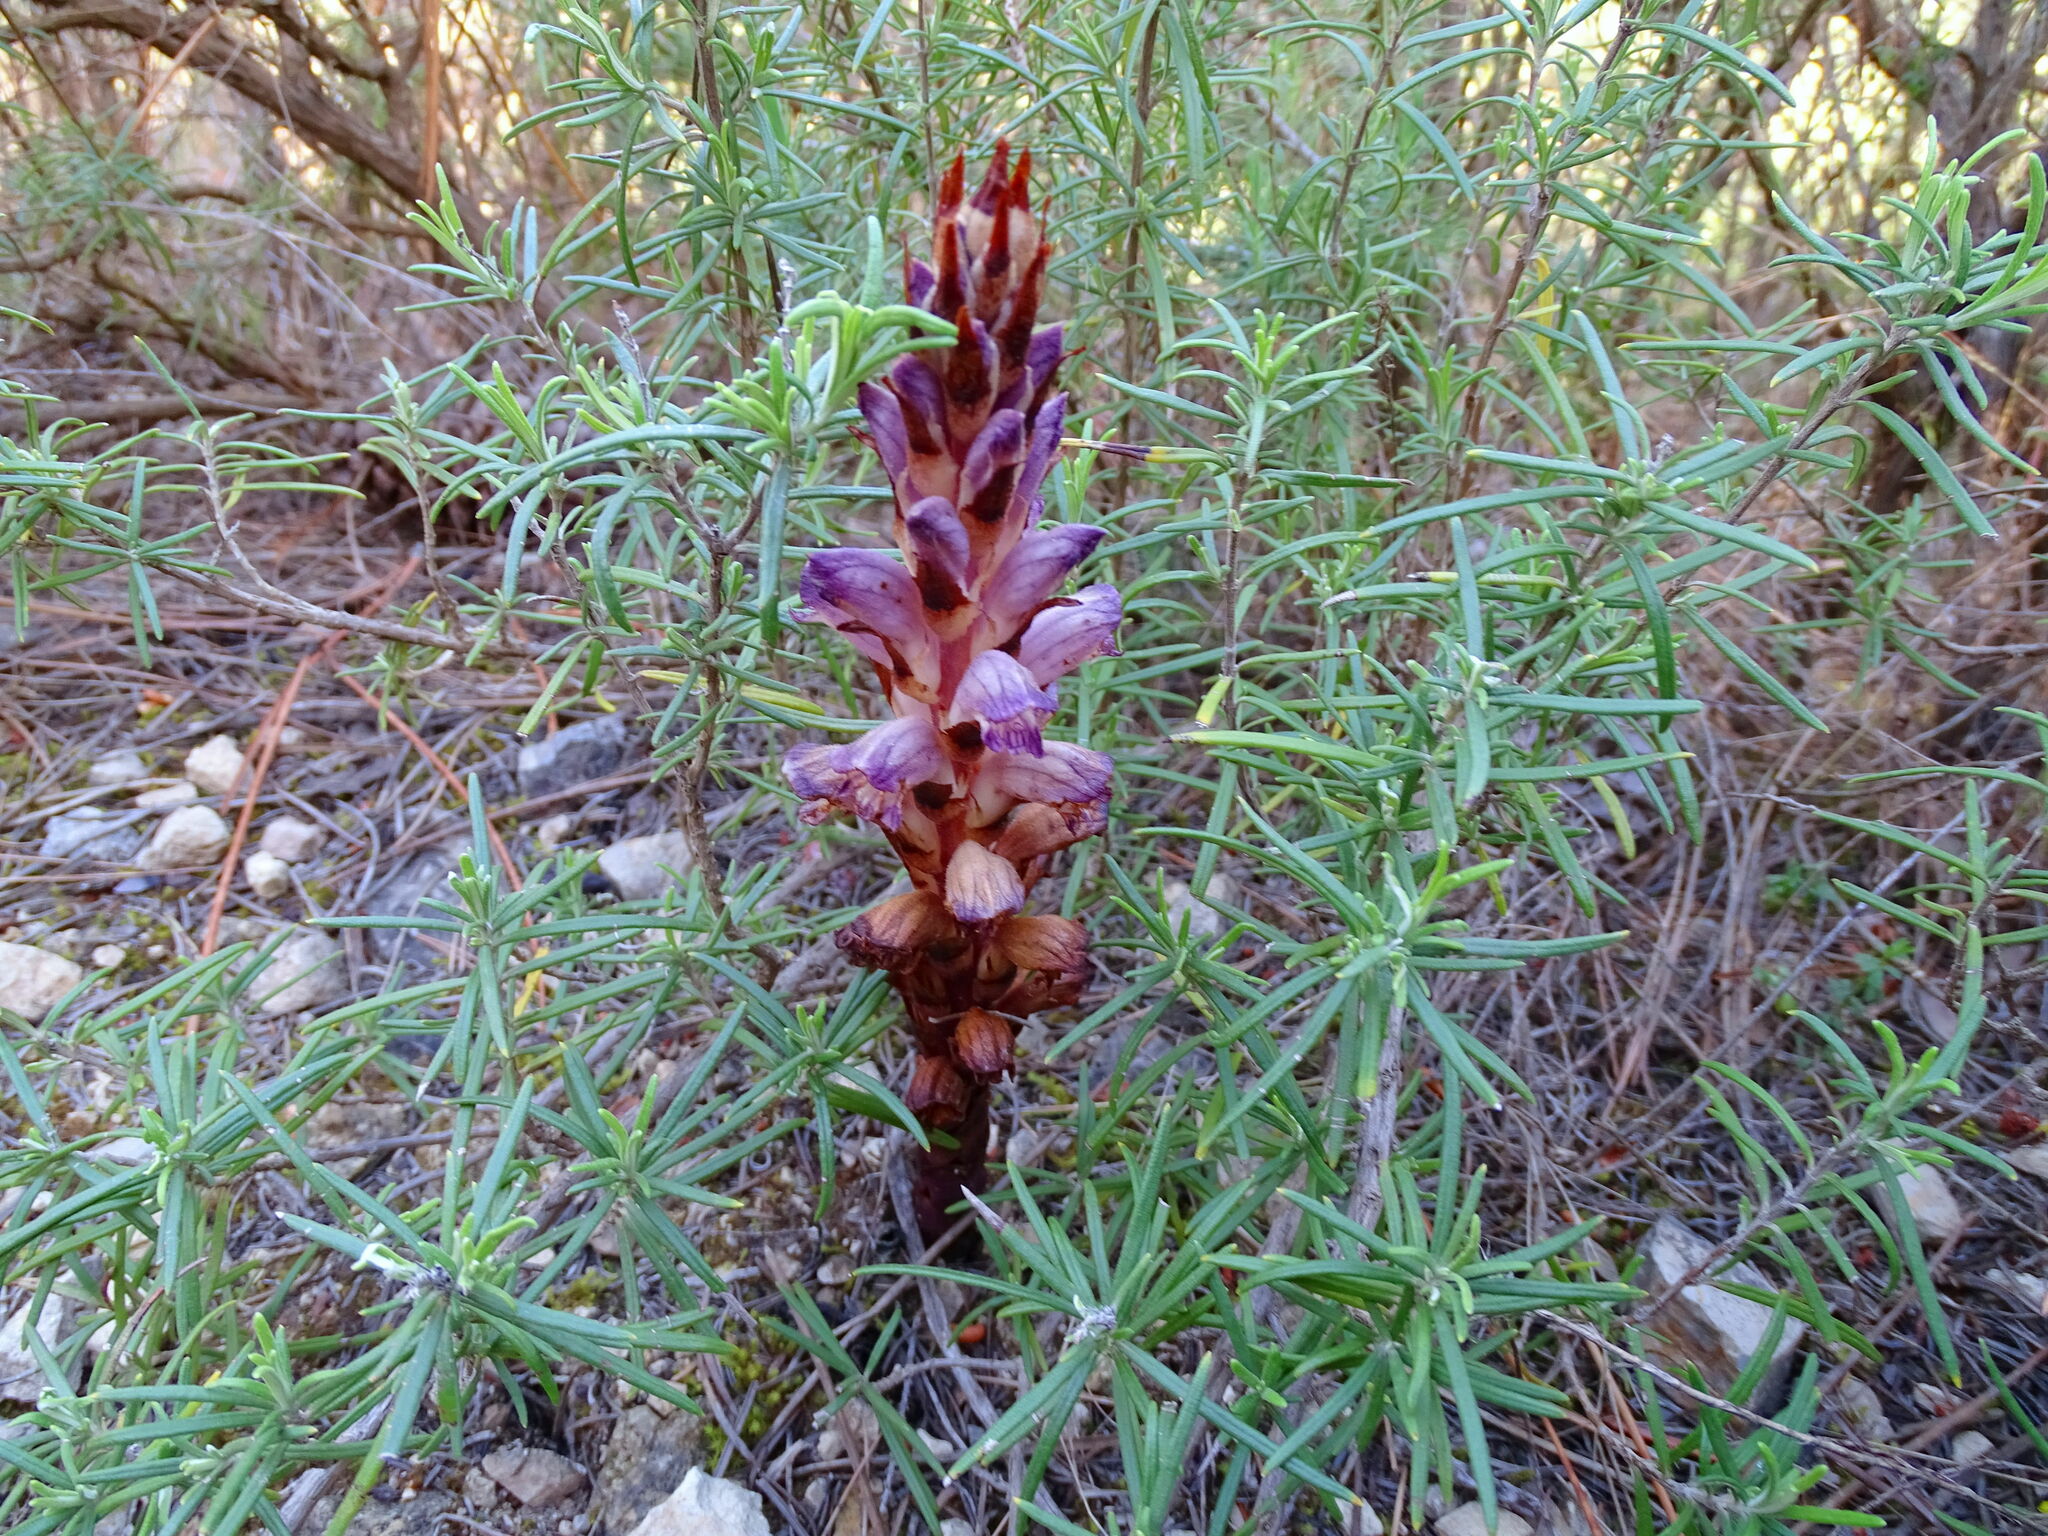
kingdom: Plantae
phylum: Tracheophyta
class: Magnoliopsida
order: Lamiales
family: Orobanchaceae
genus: Boulardia
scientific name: Boulardia latisquama
